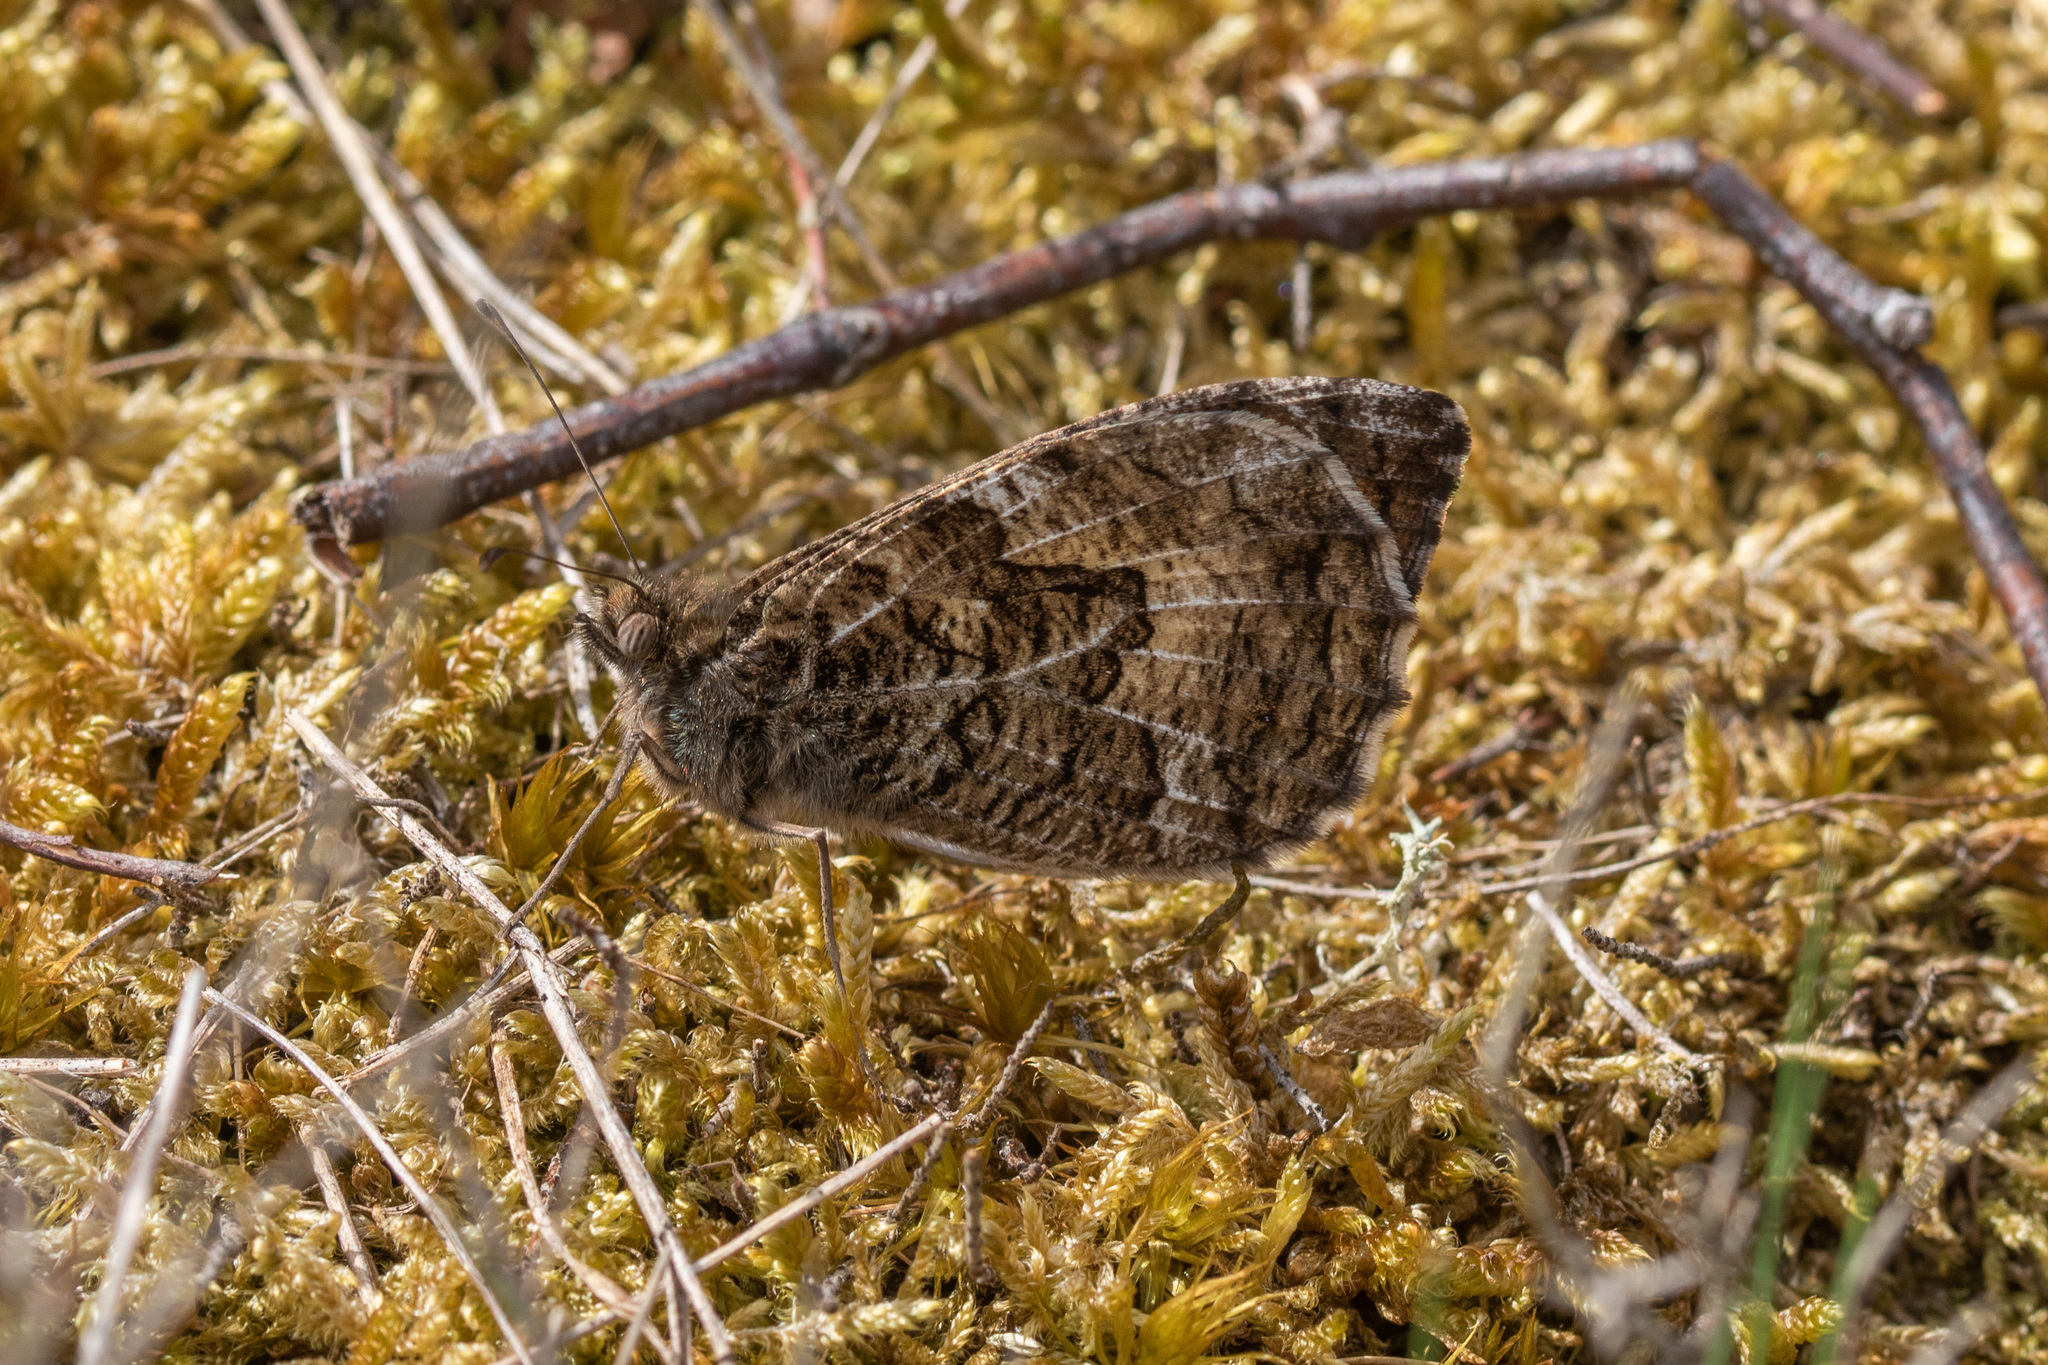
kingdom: Animalia
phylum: Arthropoda
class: Insecta
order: Lepidoptera
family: Nymphalidae
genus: Hipparchia
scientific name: Hipparchia semele
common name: Grayling
